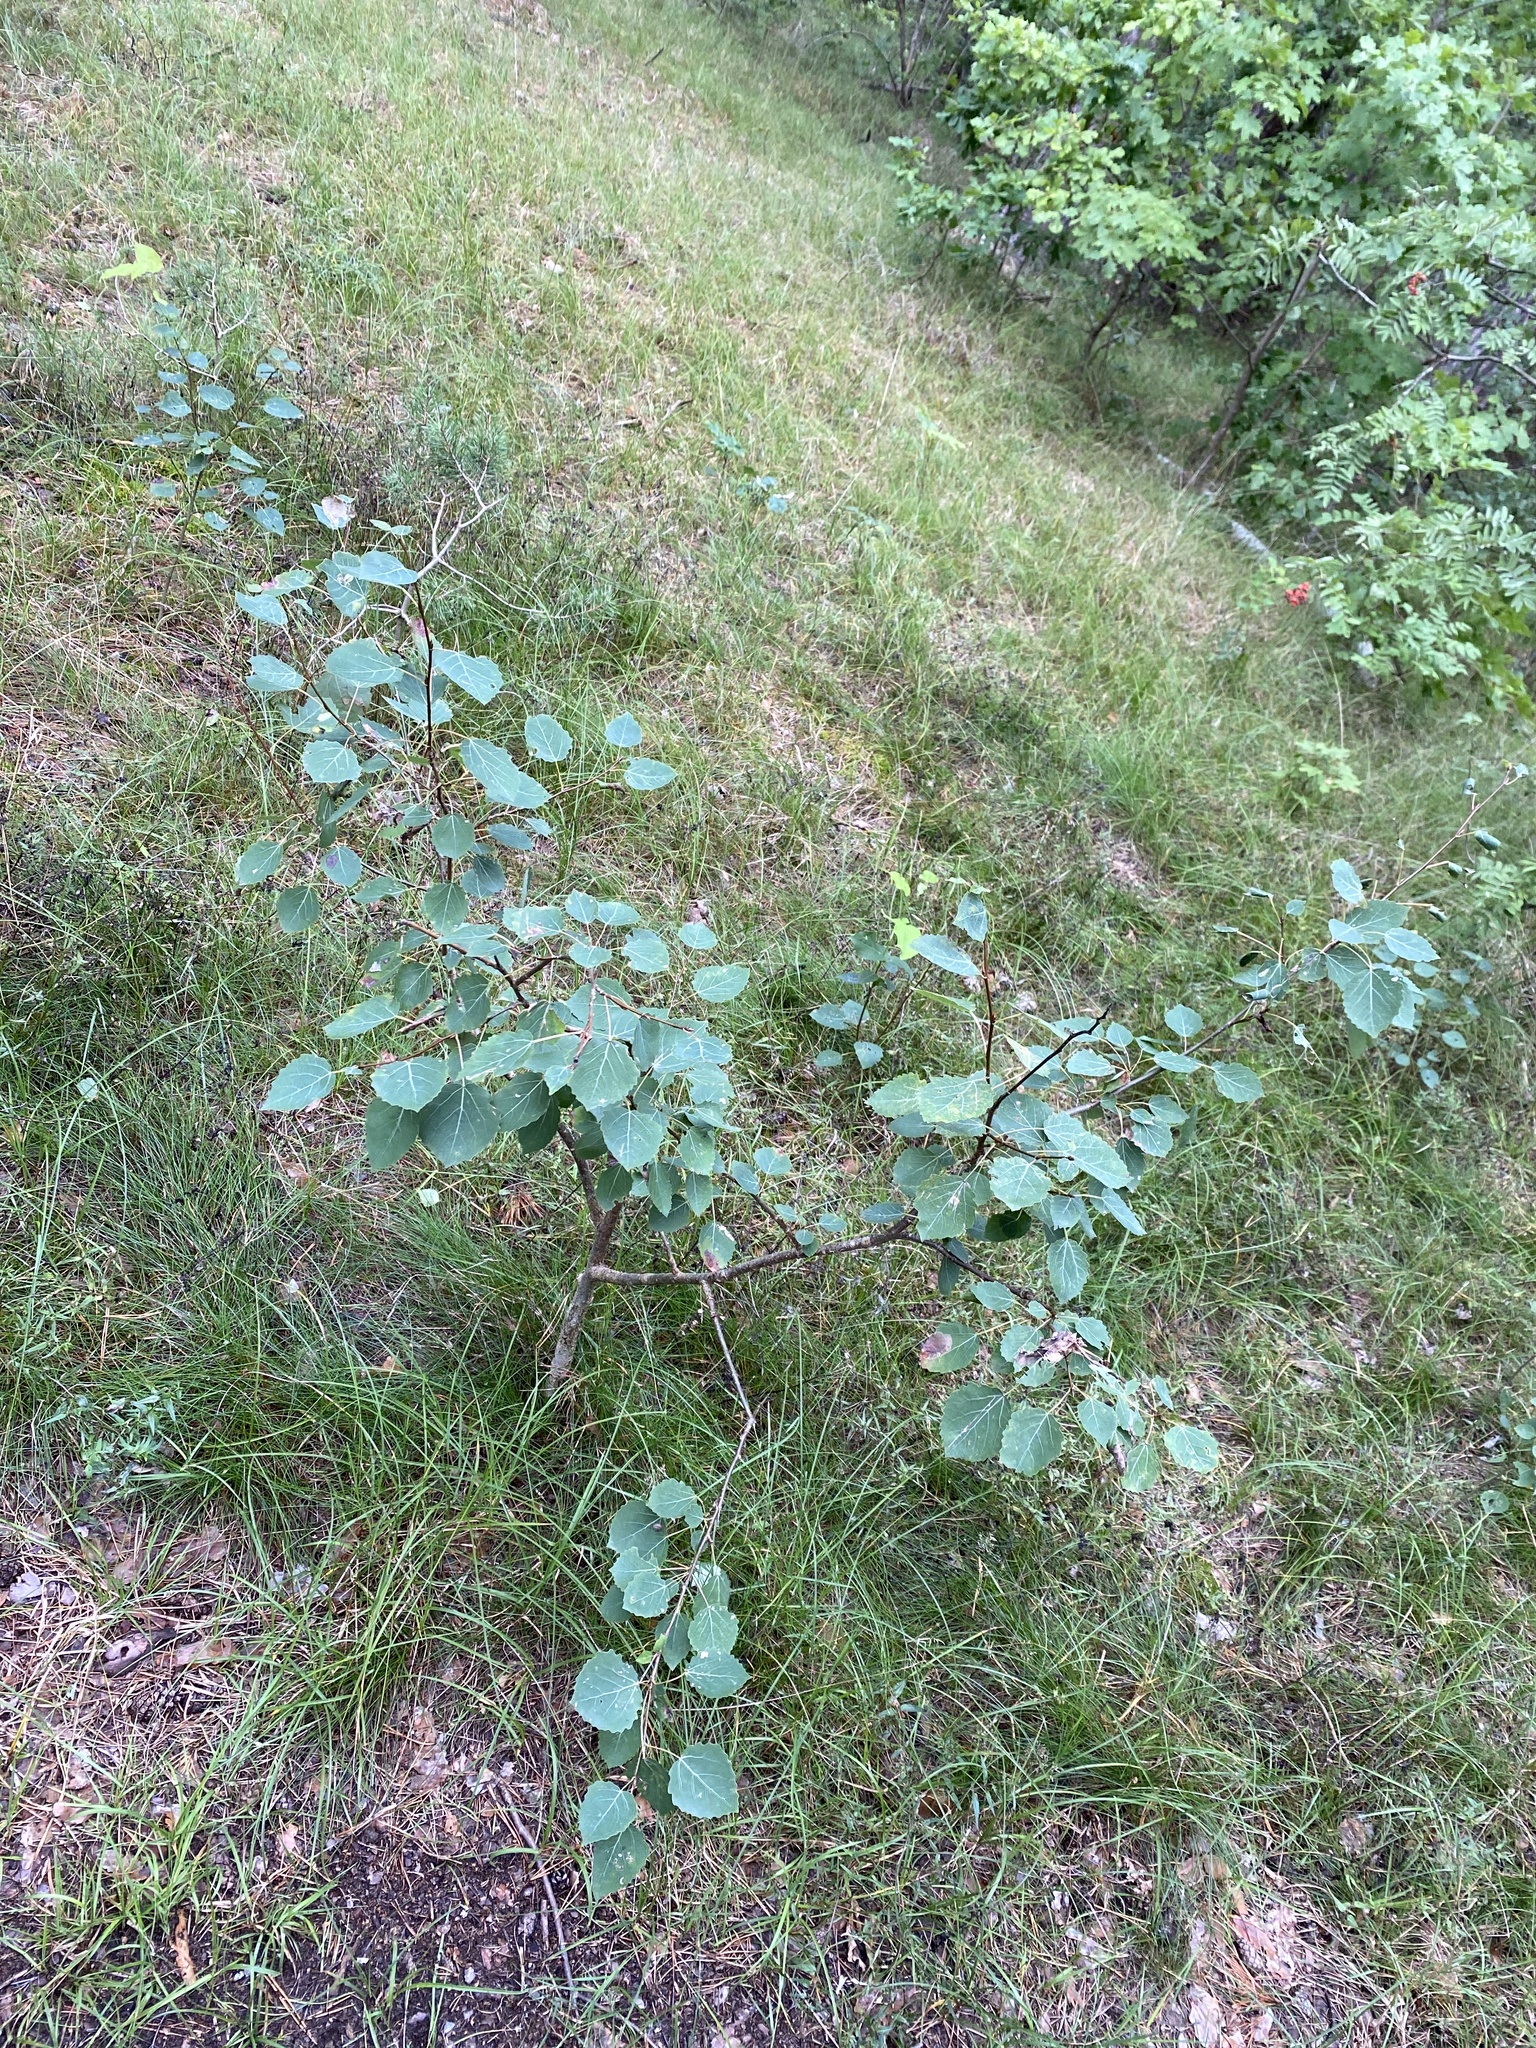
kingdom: Plantae
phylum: Tracheophyta
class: Magnoliopsida
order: Malpighiales
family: Salicaceae
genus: Populus
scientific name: Populus tremula
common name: European aspen
